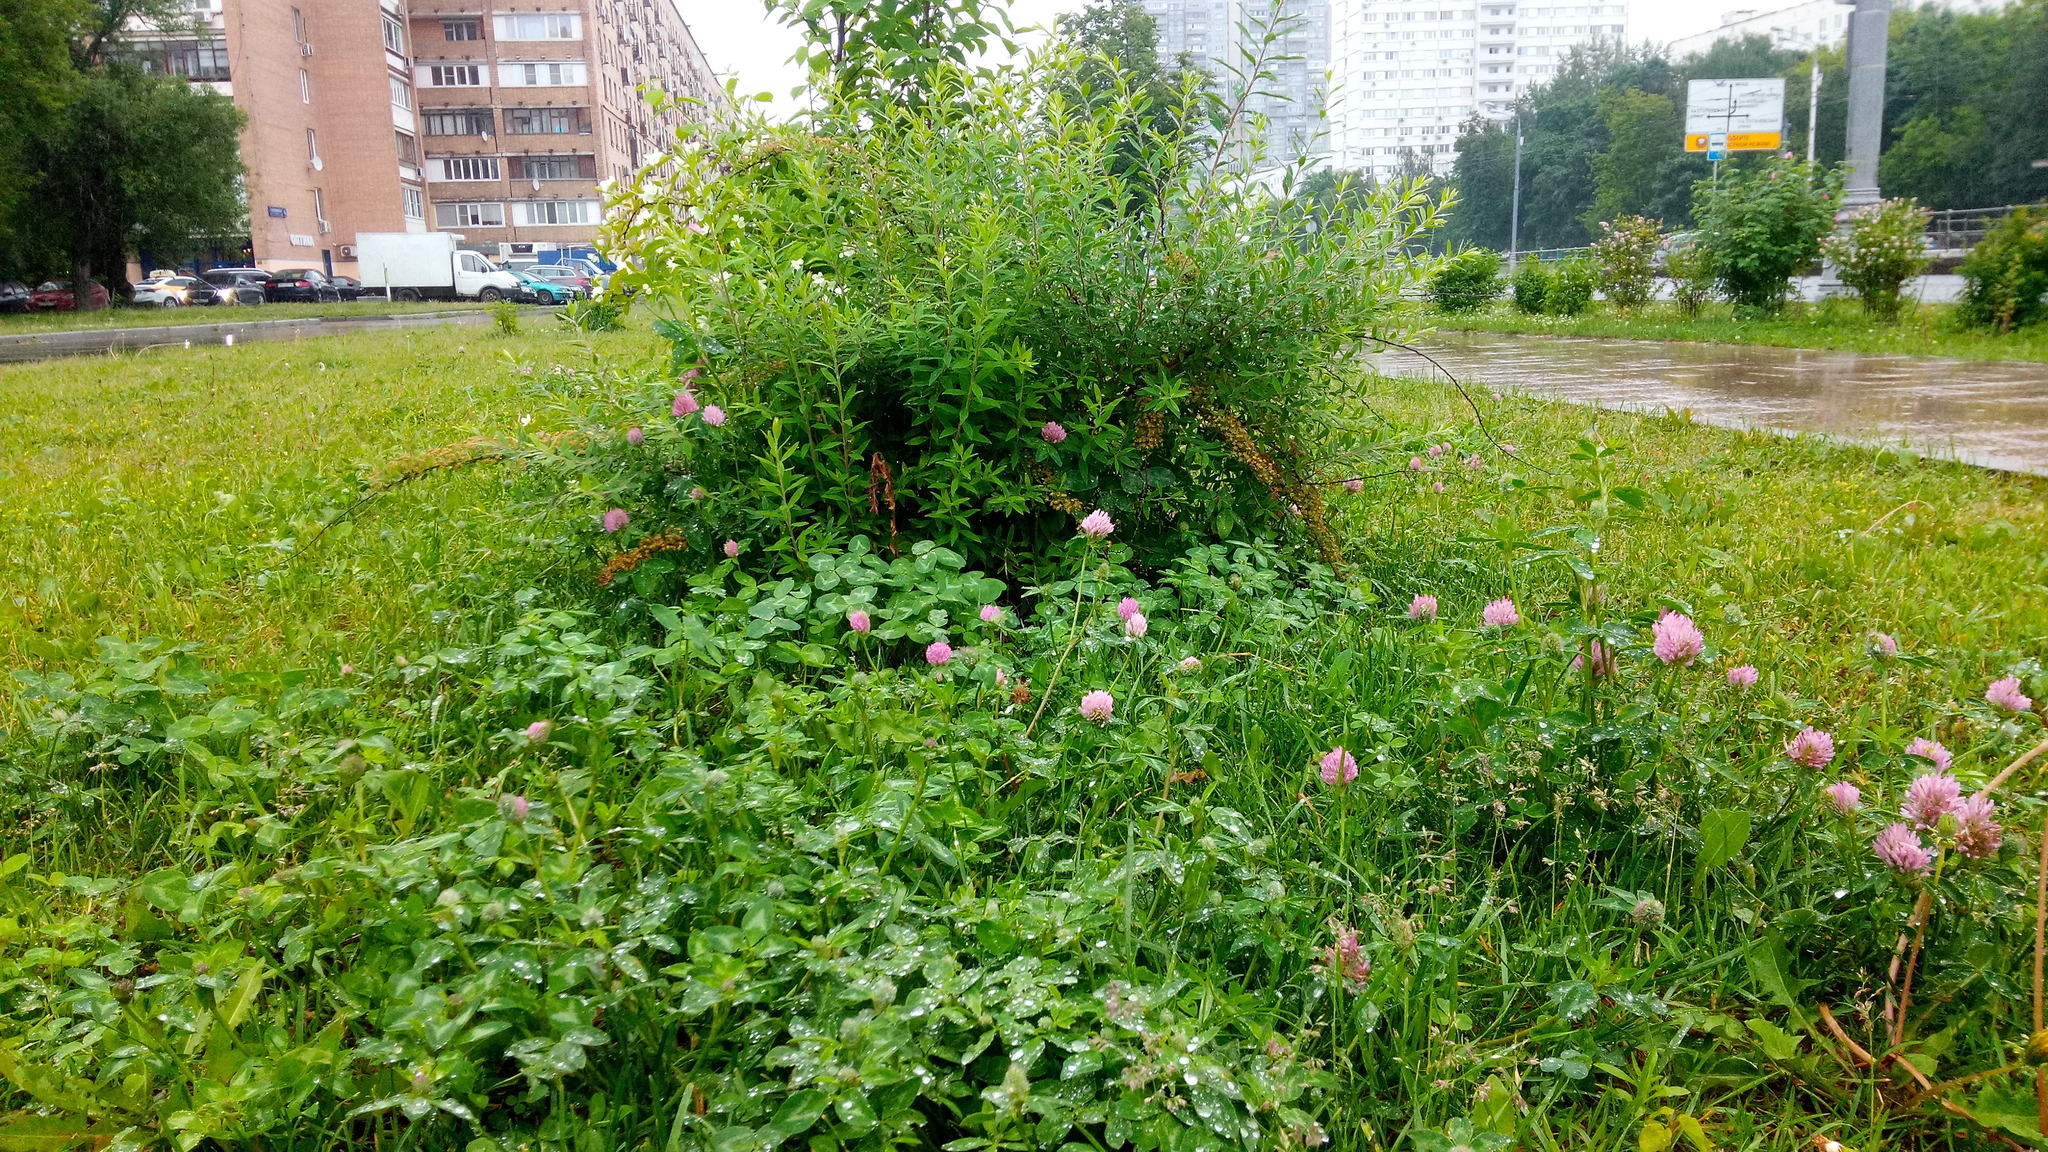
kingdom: Plantae
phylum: Tracheophyta
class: Magnoliopsida
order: Fabales
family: Fabaceae
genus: Trifolium
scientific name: Trifolium pratense
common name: Red clover
